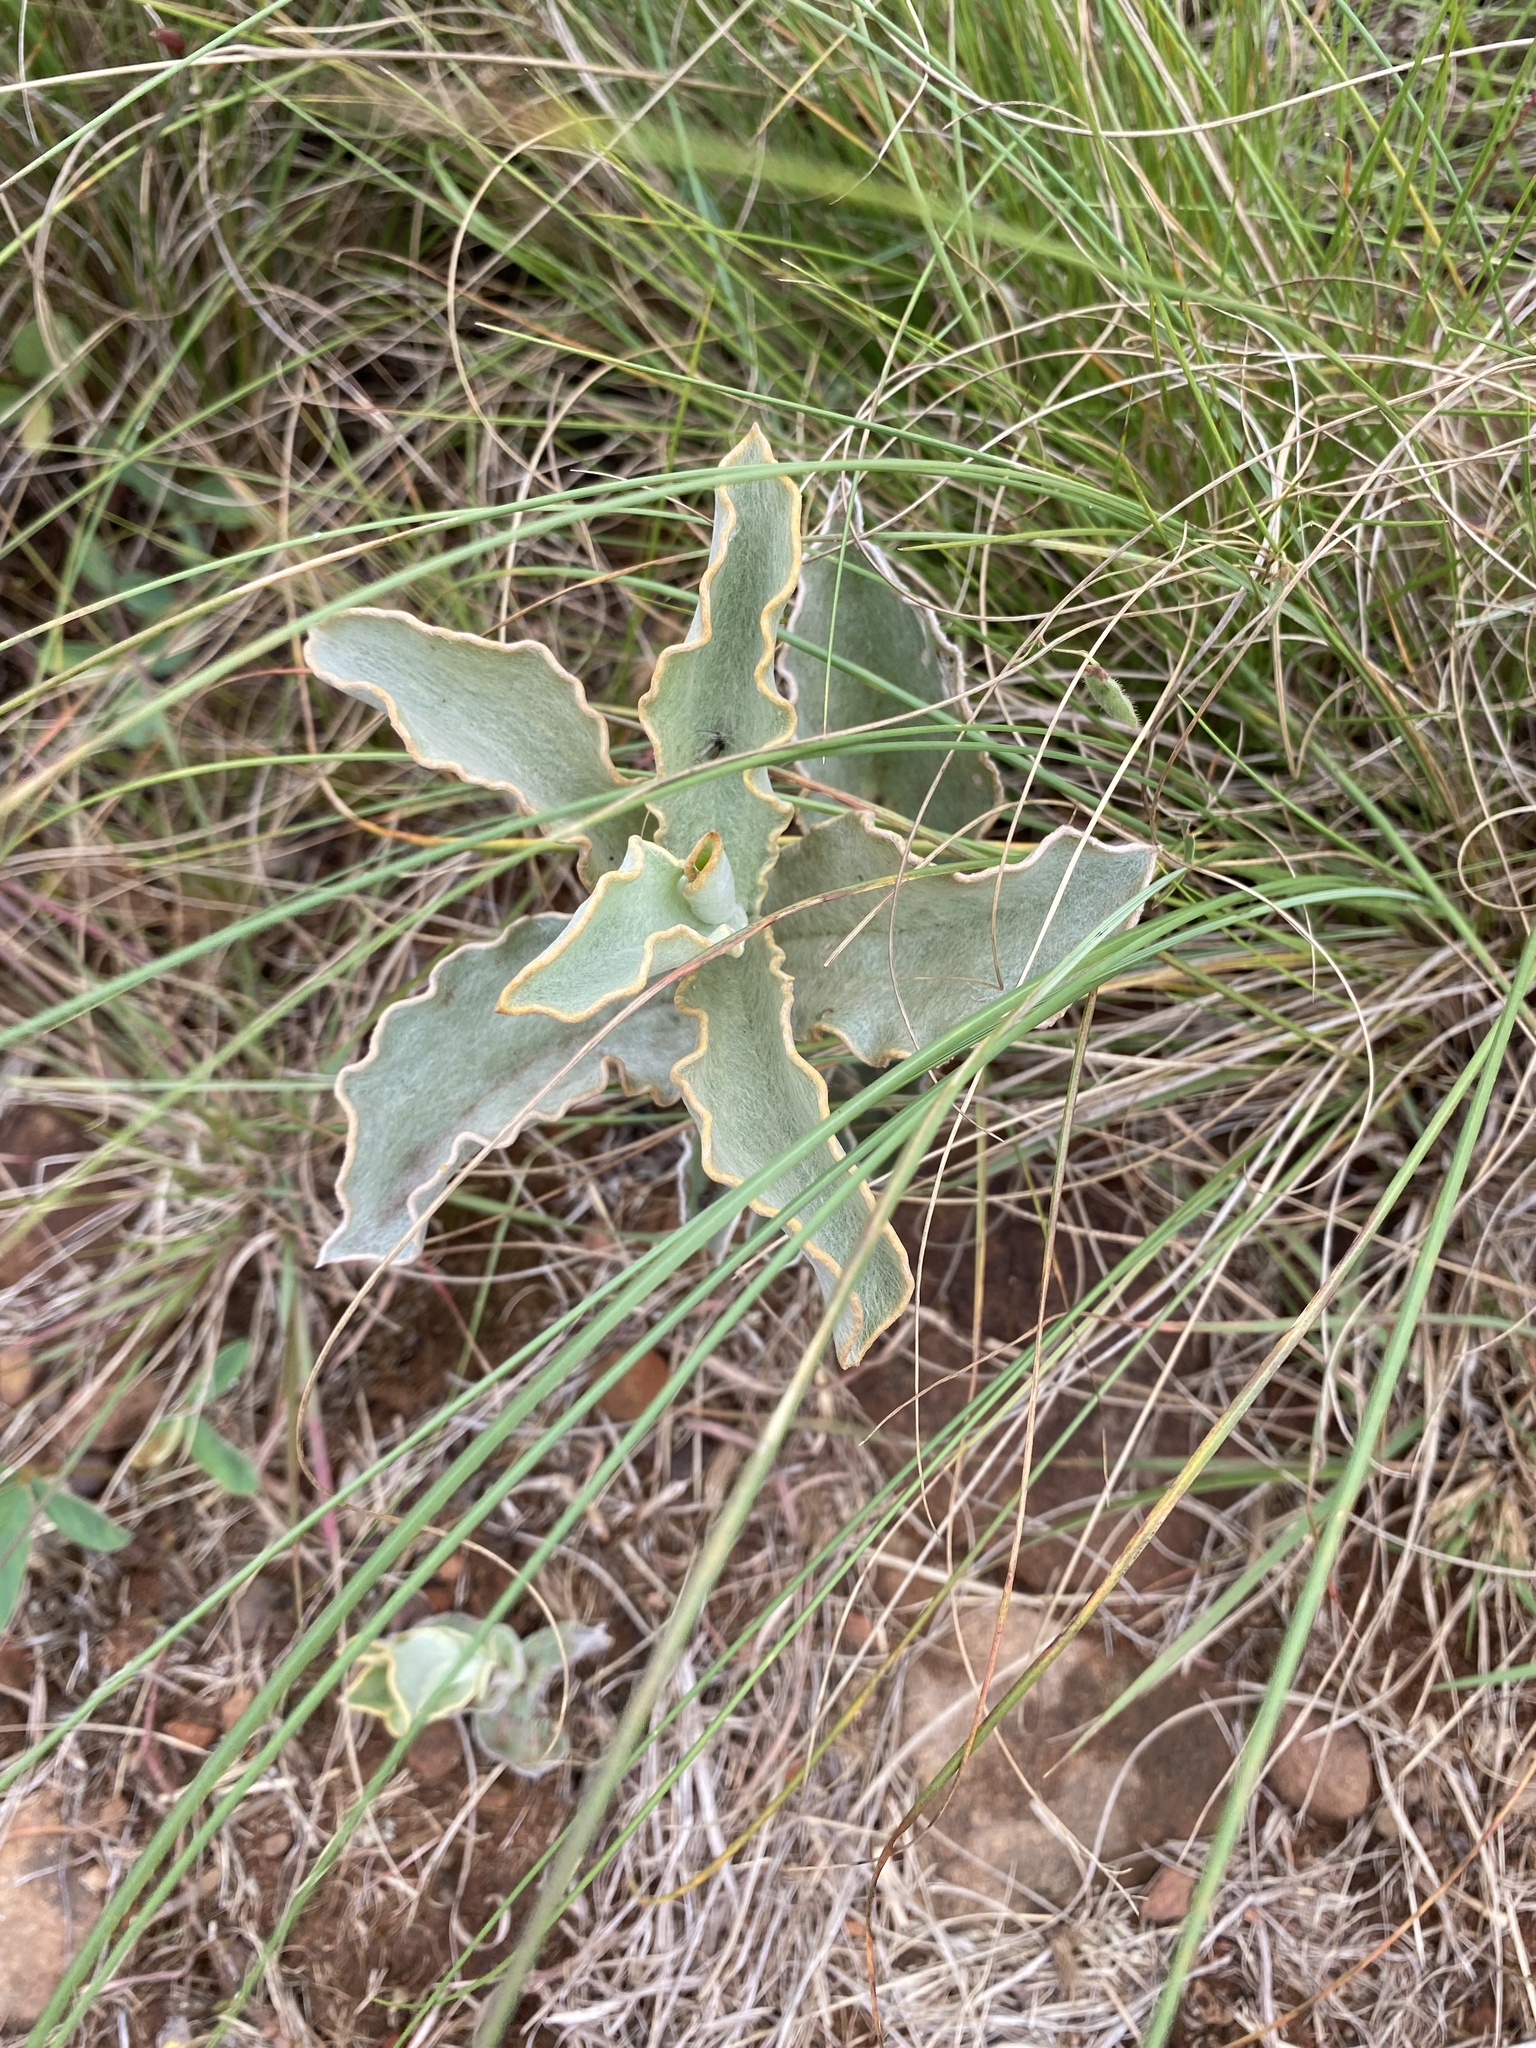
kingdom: Plantae
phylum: Tracheophyta
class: Magnoliopsida
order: Asterales
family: Asteraceae
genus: Helichrysum
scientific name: Helichrysum pannosum
